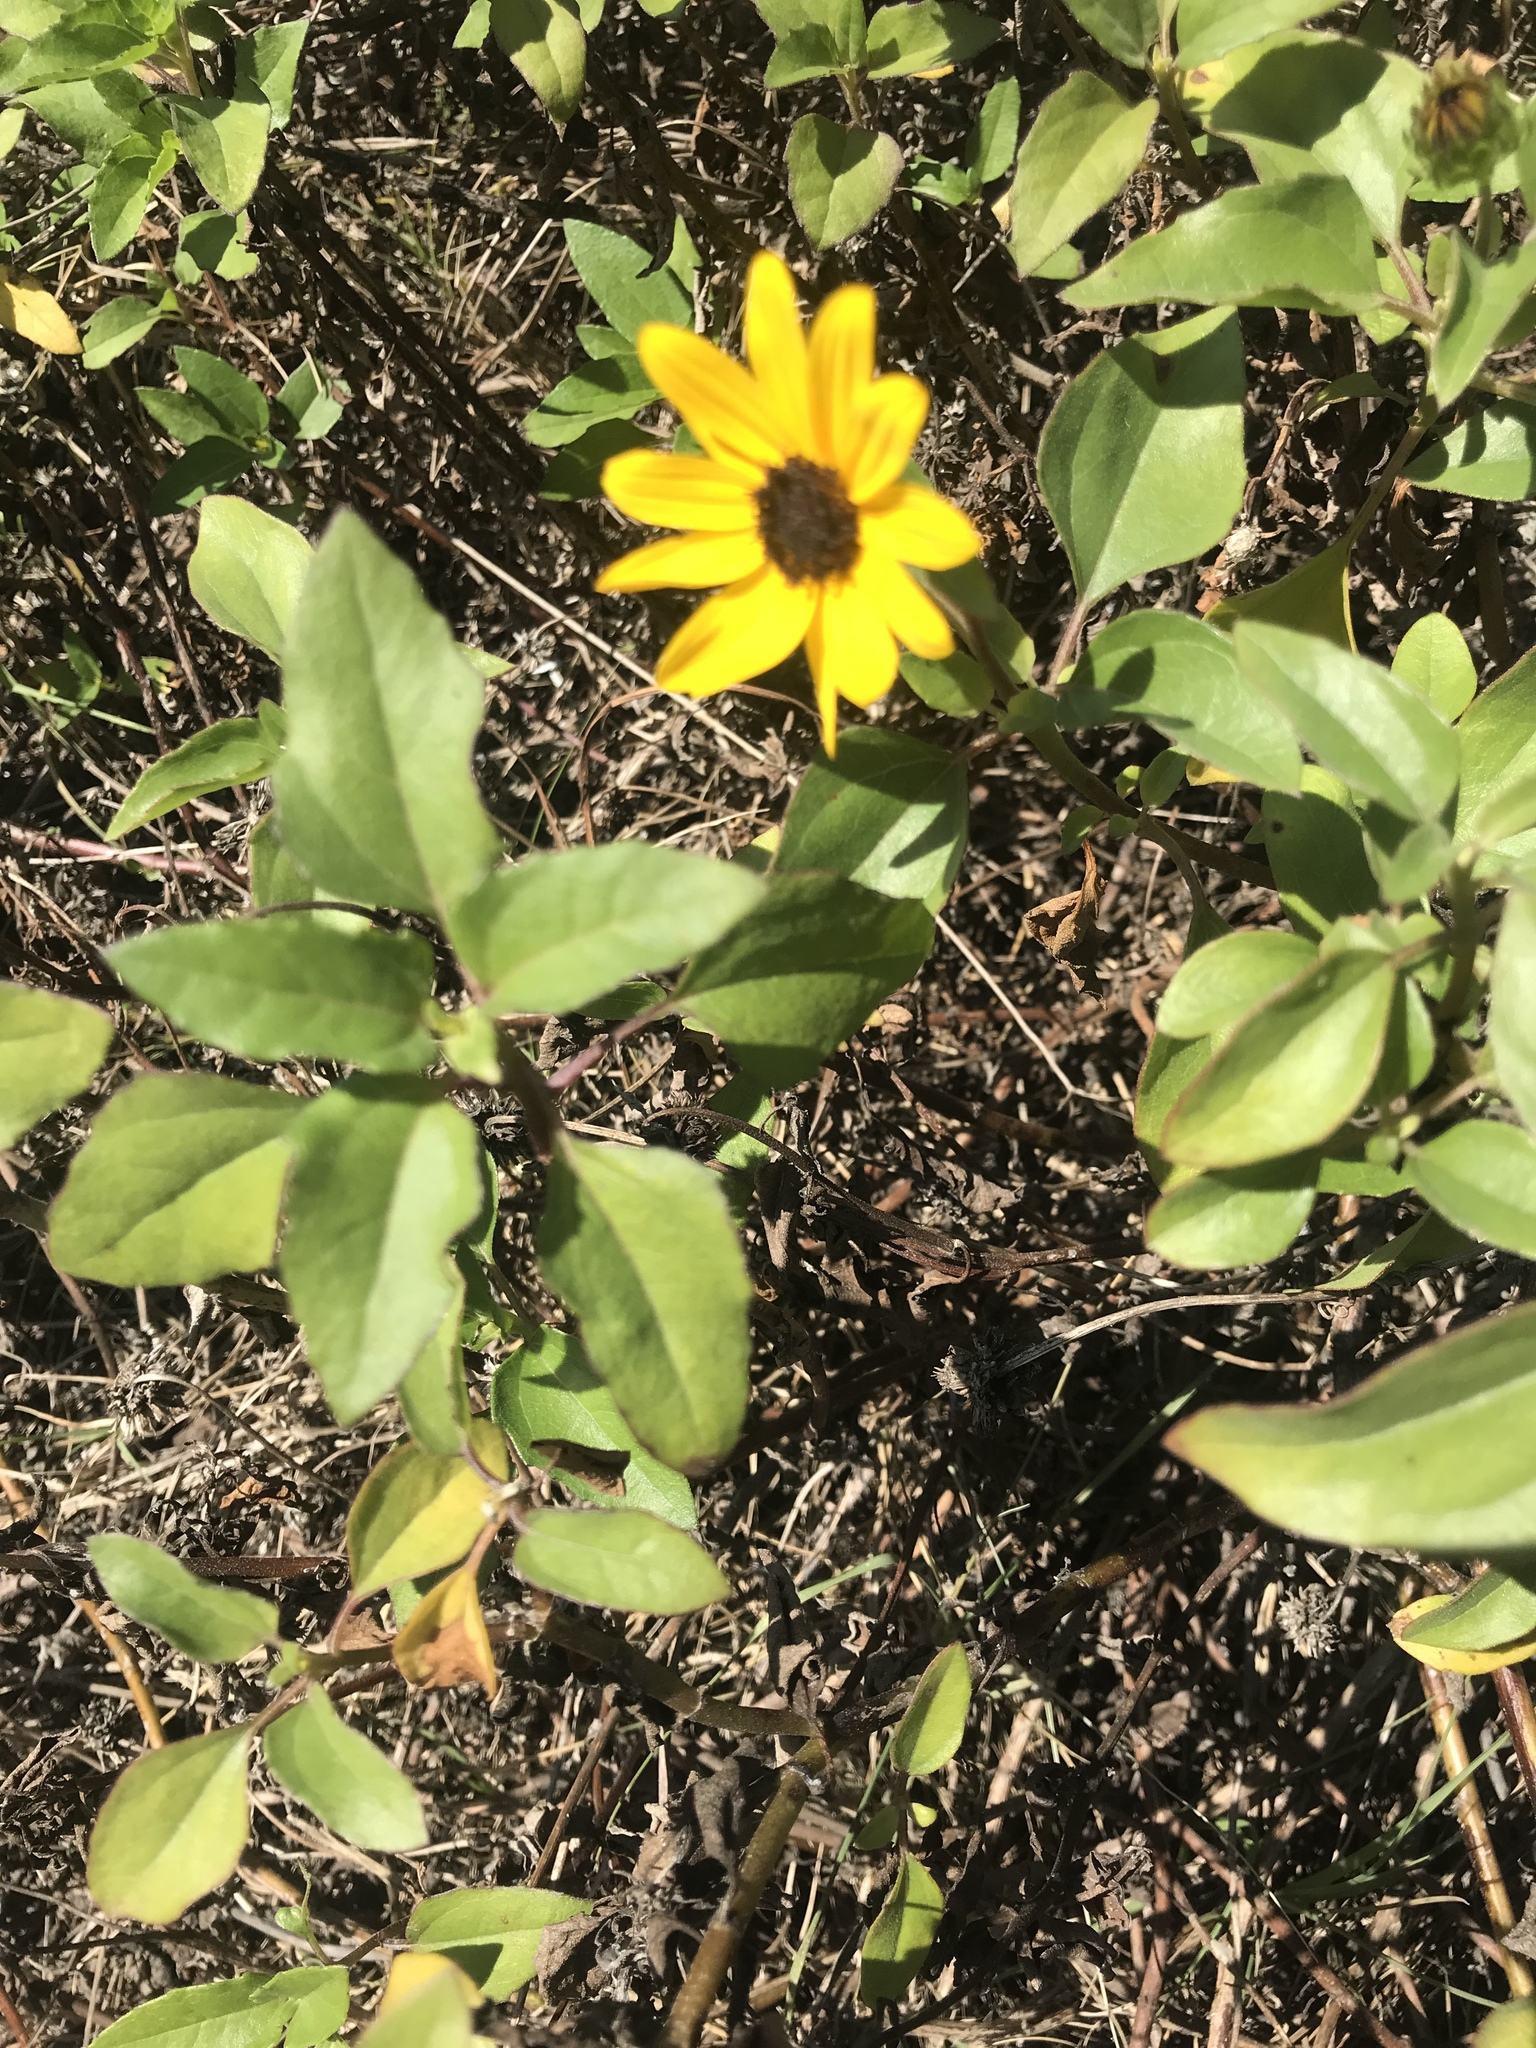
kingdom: Plantae
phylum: Tracheophyta
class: Magnoliopsida
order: Asterales
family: Asteraceae
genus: Helianthus
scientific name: Helianthus debilis
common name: Weak sunflower
